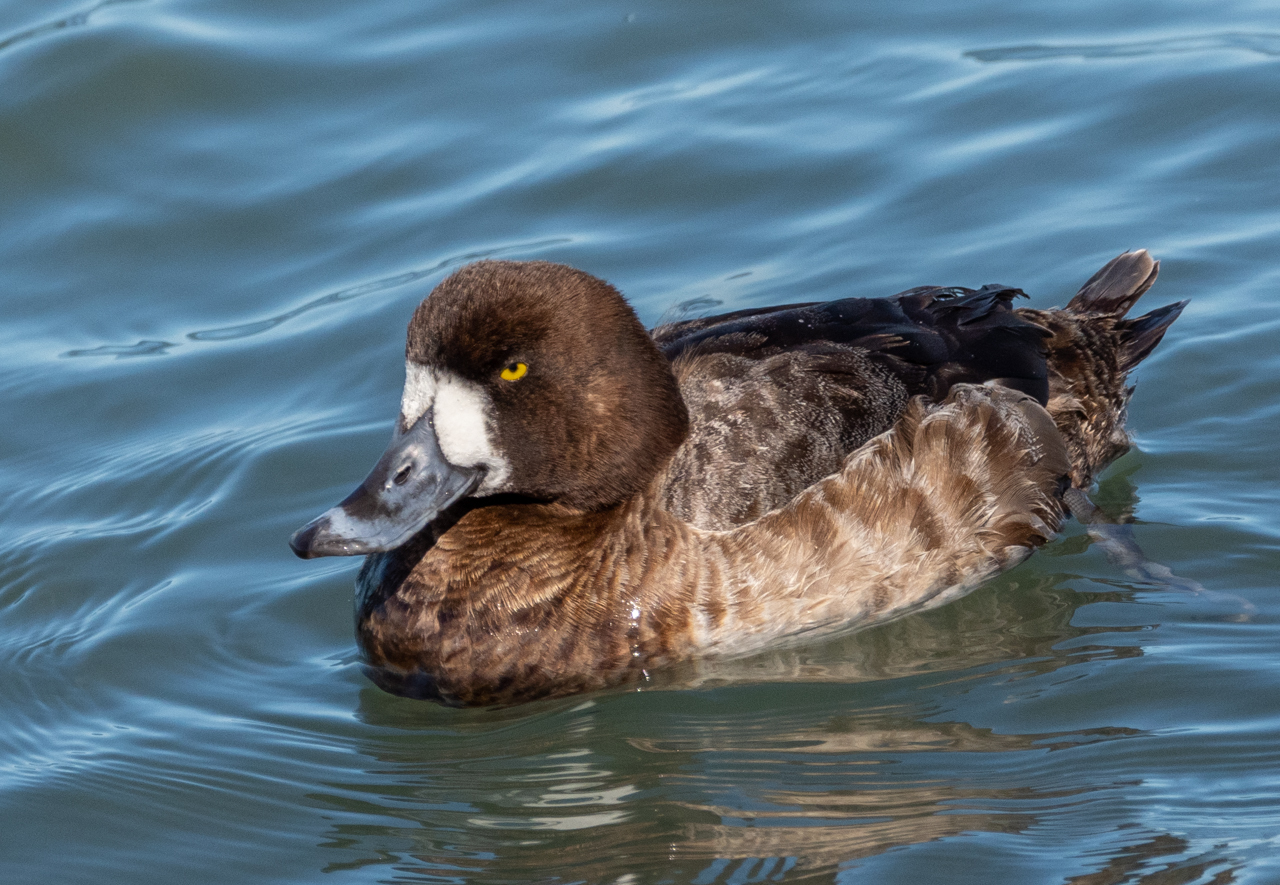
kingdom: Animalia
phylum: Chordata
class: Aves
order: Anseriformes
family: Anatidae
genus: Aythya
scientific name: Aythya marila
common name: Greater scaup
